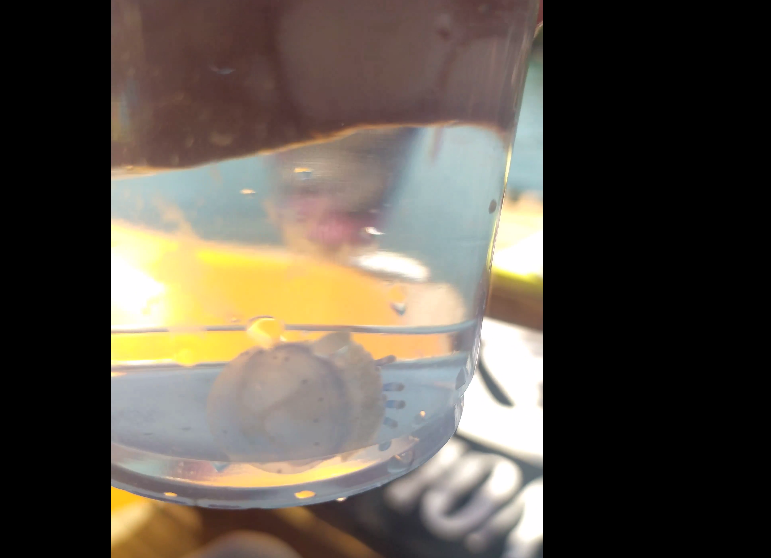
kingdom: Animalia
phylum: Cnidaria
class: Scyphozoa
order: Rhizostomeae
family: Rhizostomatidae
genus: Rhizostoma
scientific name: Rhizostoma pulmo
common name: Barrel jellyfish
